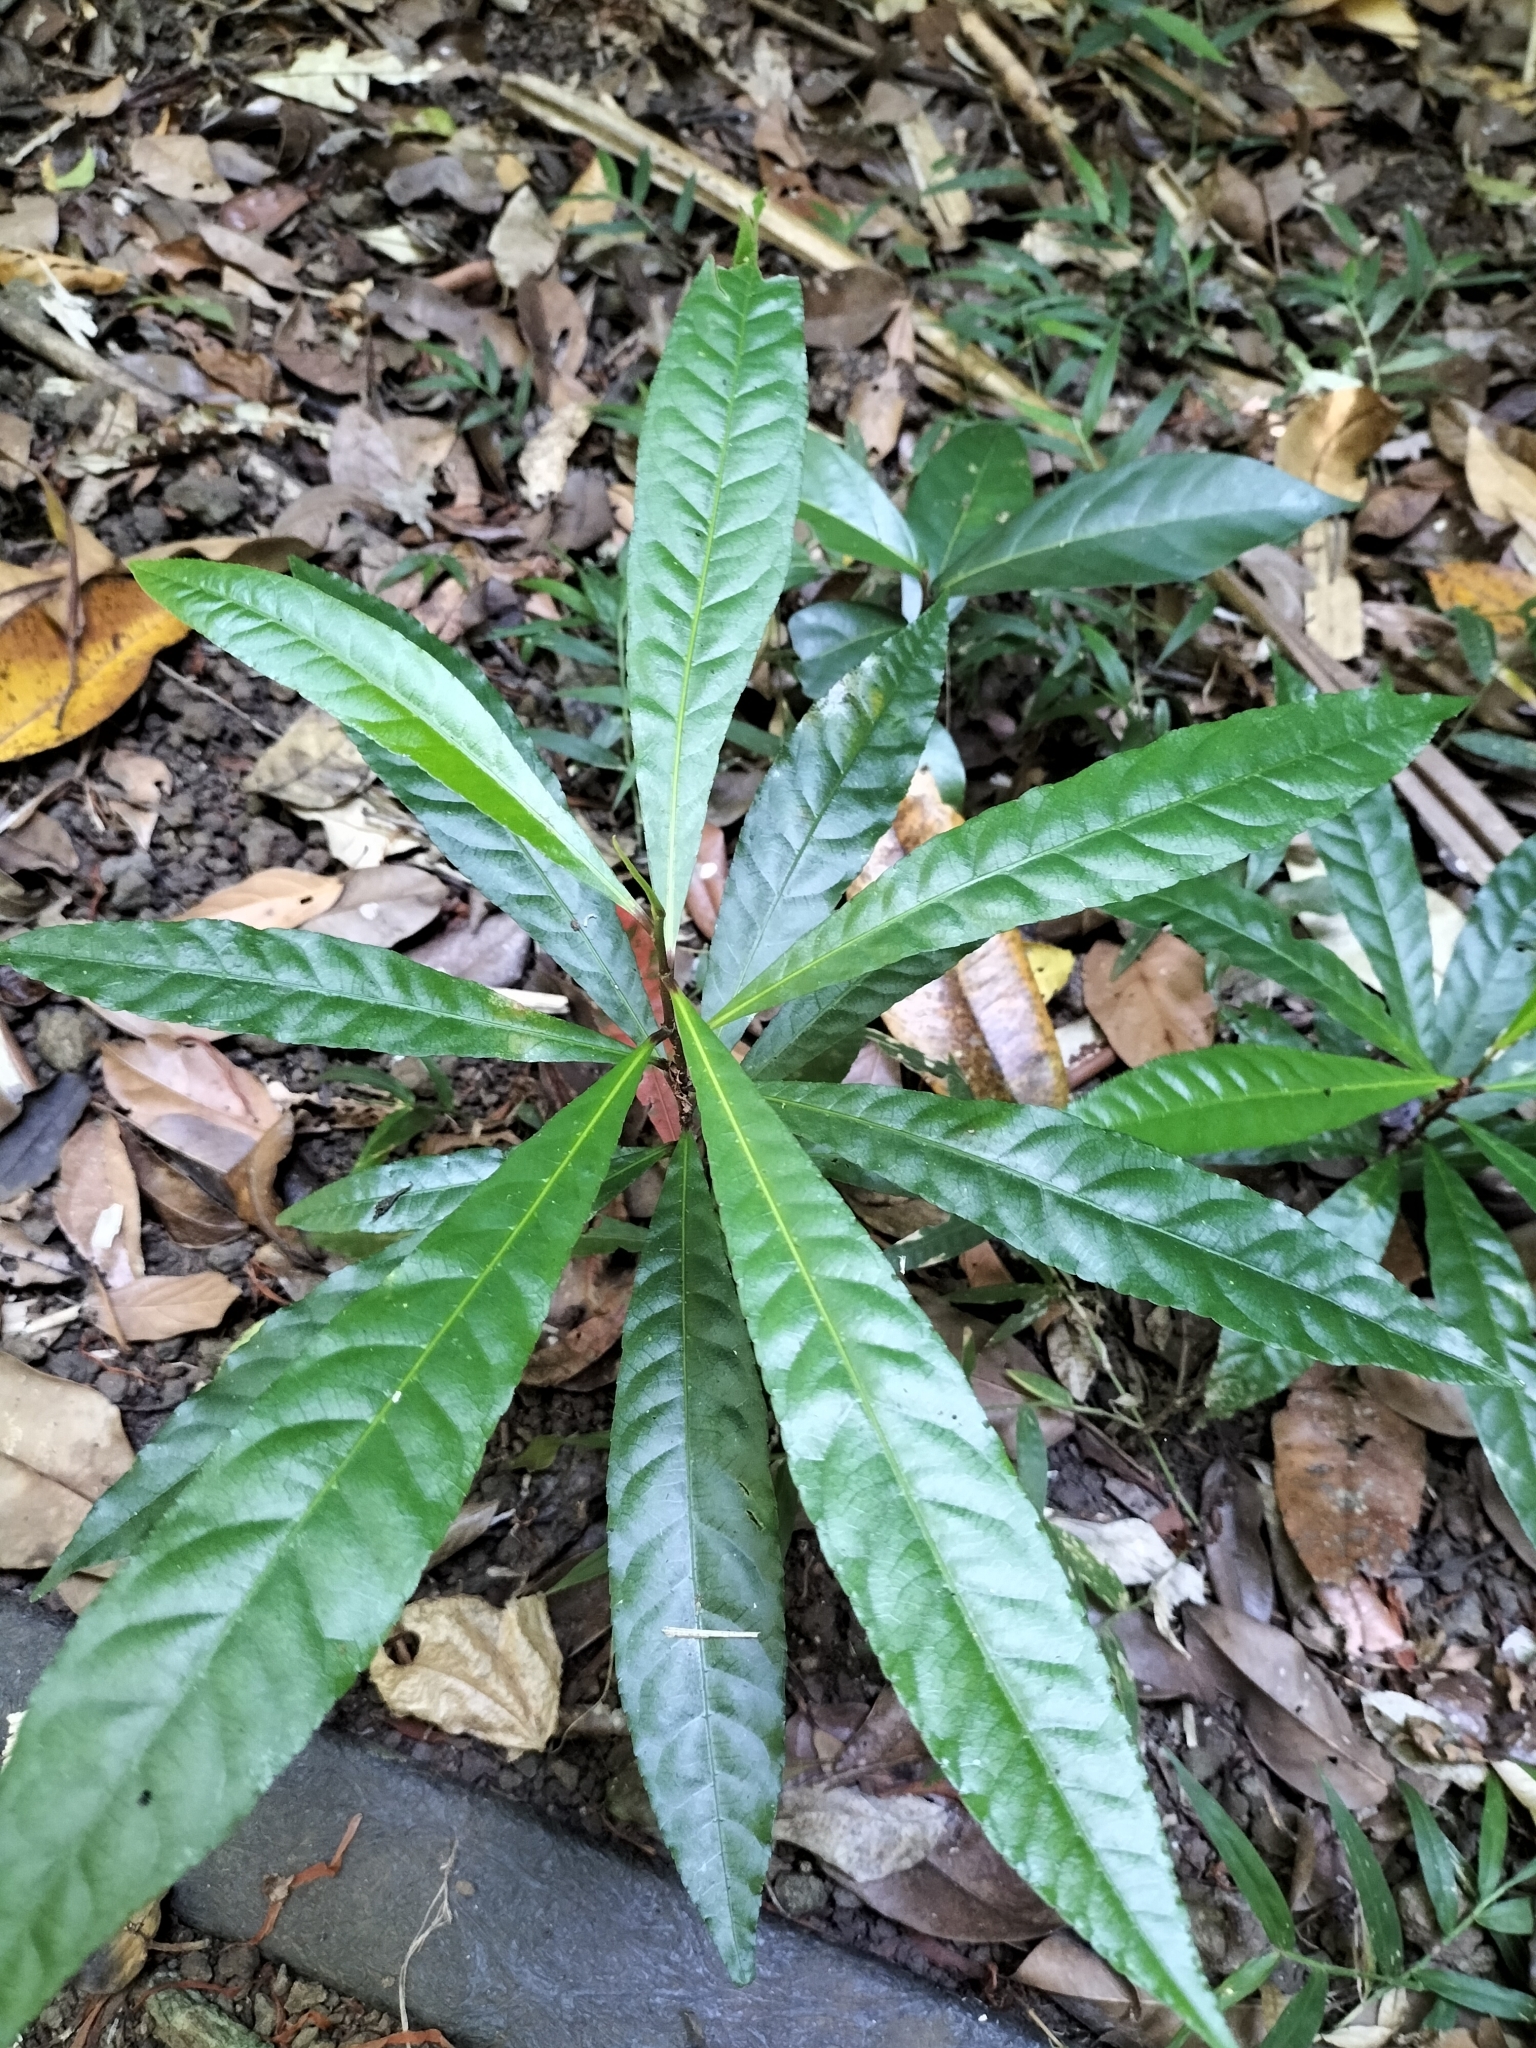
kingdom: Plantae
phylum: Tracheophyta
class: Magnoliopsida
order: Oxalidales
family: Elaeocarpaceae
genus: Elaeocarpus
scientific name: Elaeocarpus angustifolius
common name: Blue marble tree
